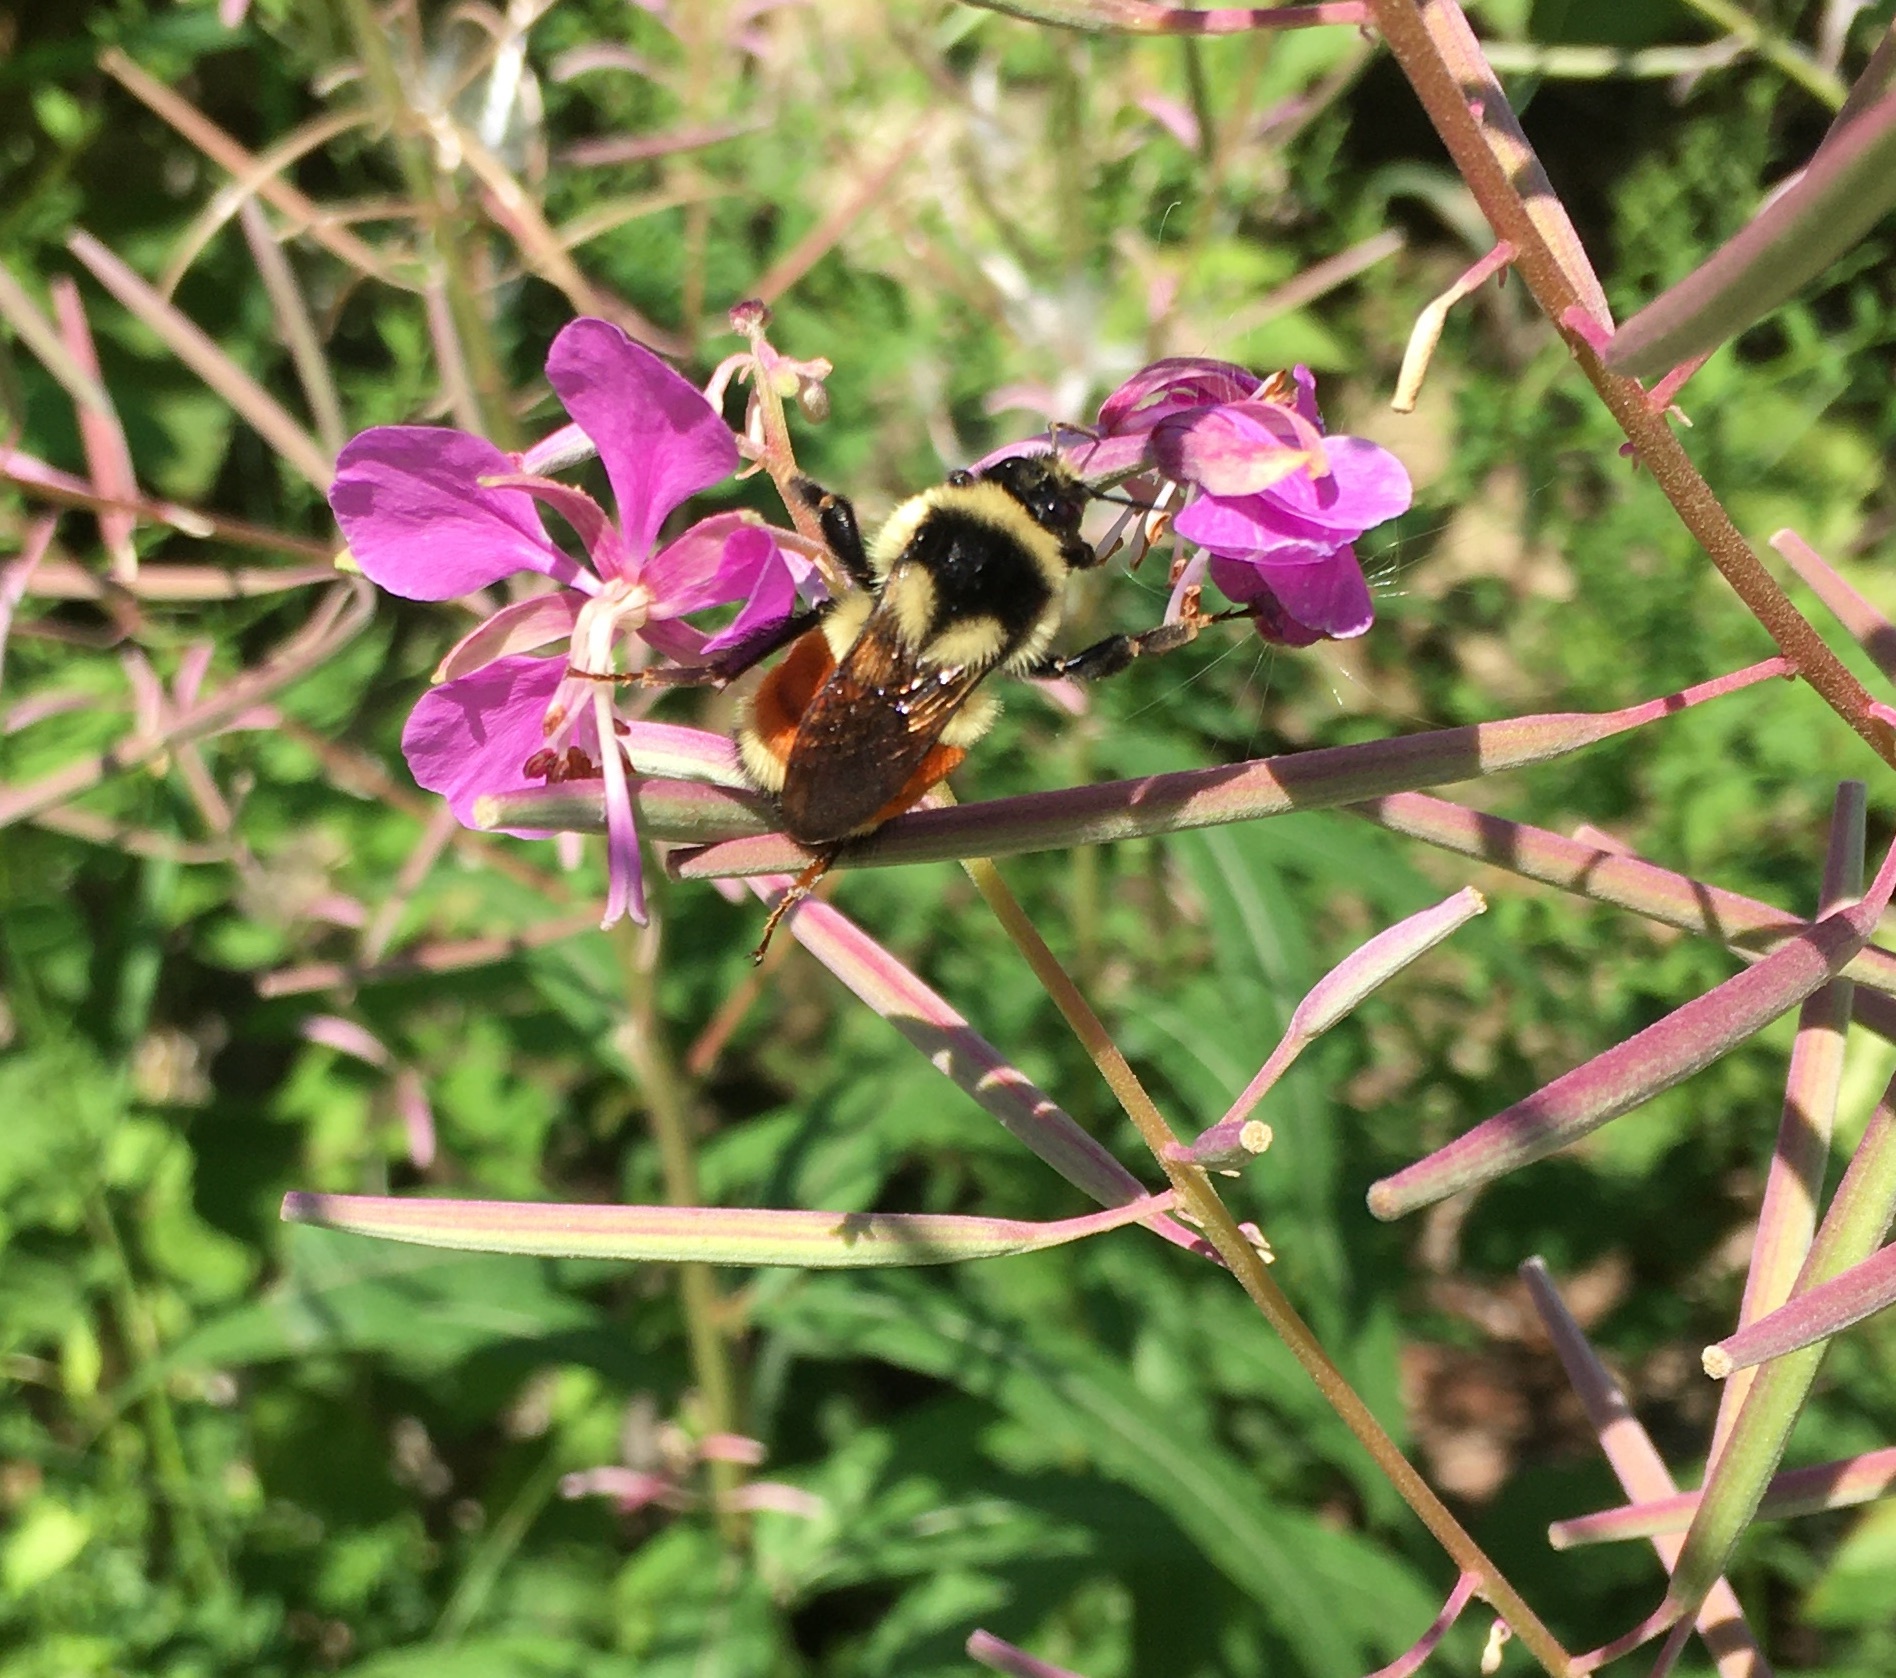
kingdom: Animalia
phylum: Arthropoda
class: Insecta
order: Hymenoptera
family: Apidae
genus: Bombus
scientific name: Bombus ternarius
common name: Tri-colored bumble bee
